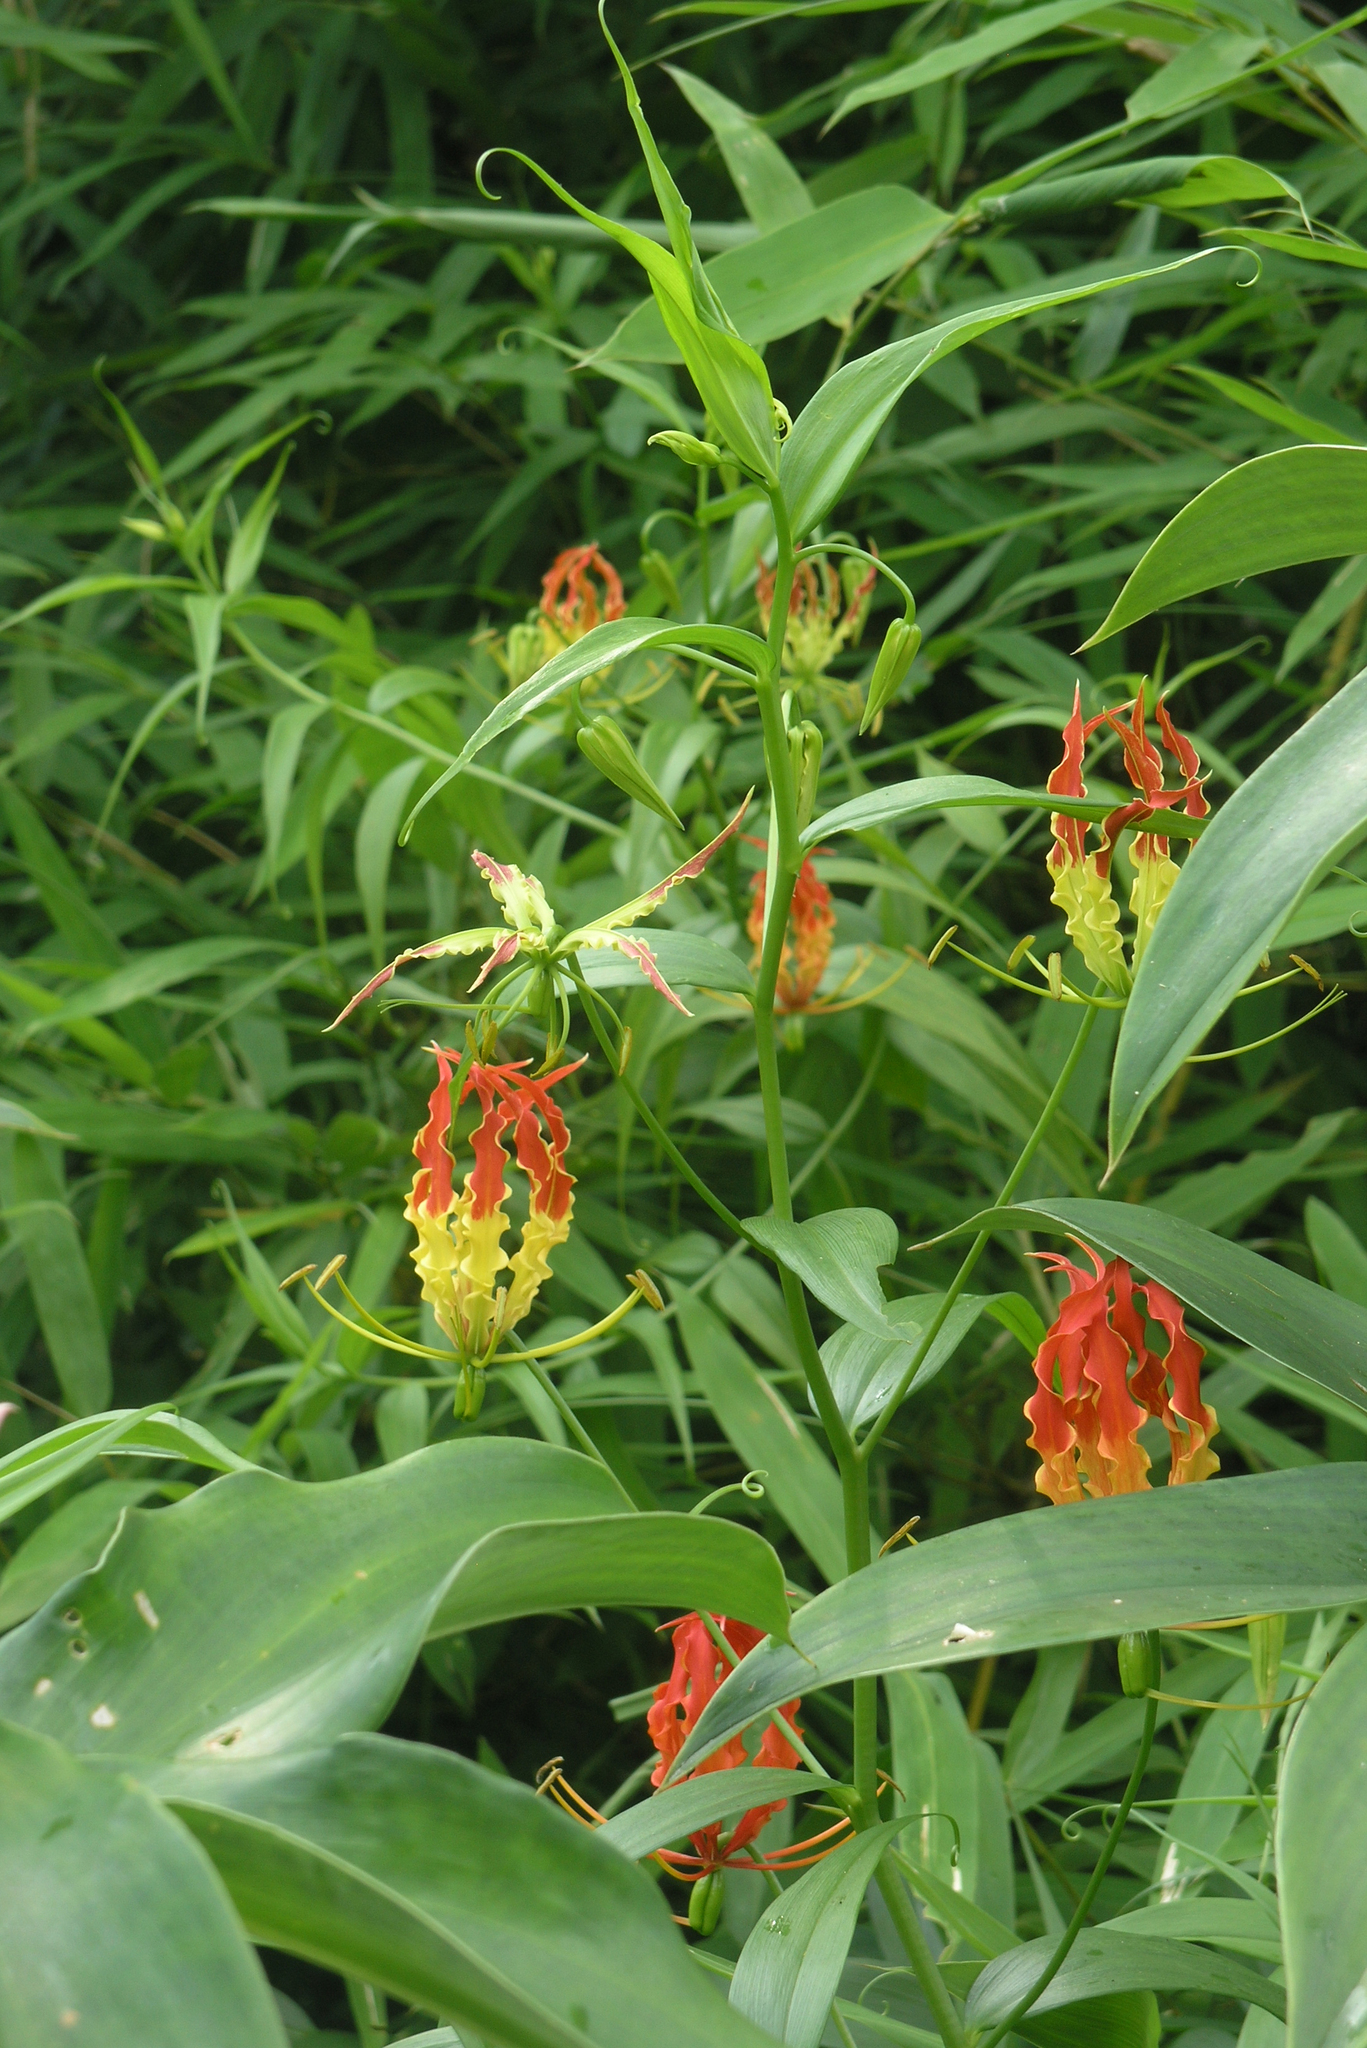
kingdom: Plantae
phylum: Tracheophyta
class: Liliopsida
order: Liliales
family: Colchicaceae
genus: Gloriosa
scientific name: Gloriosa superba
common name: Flame lily
